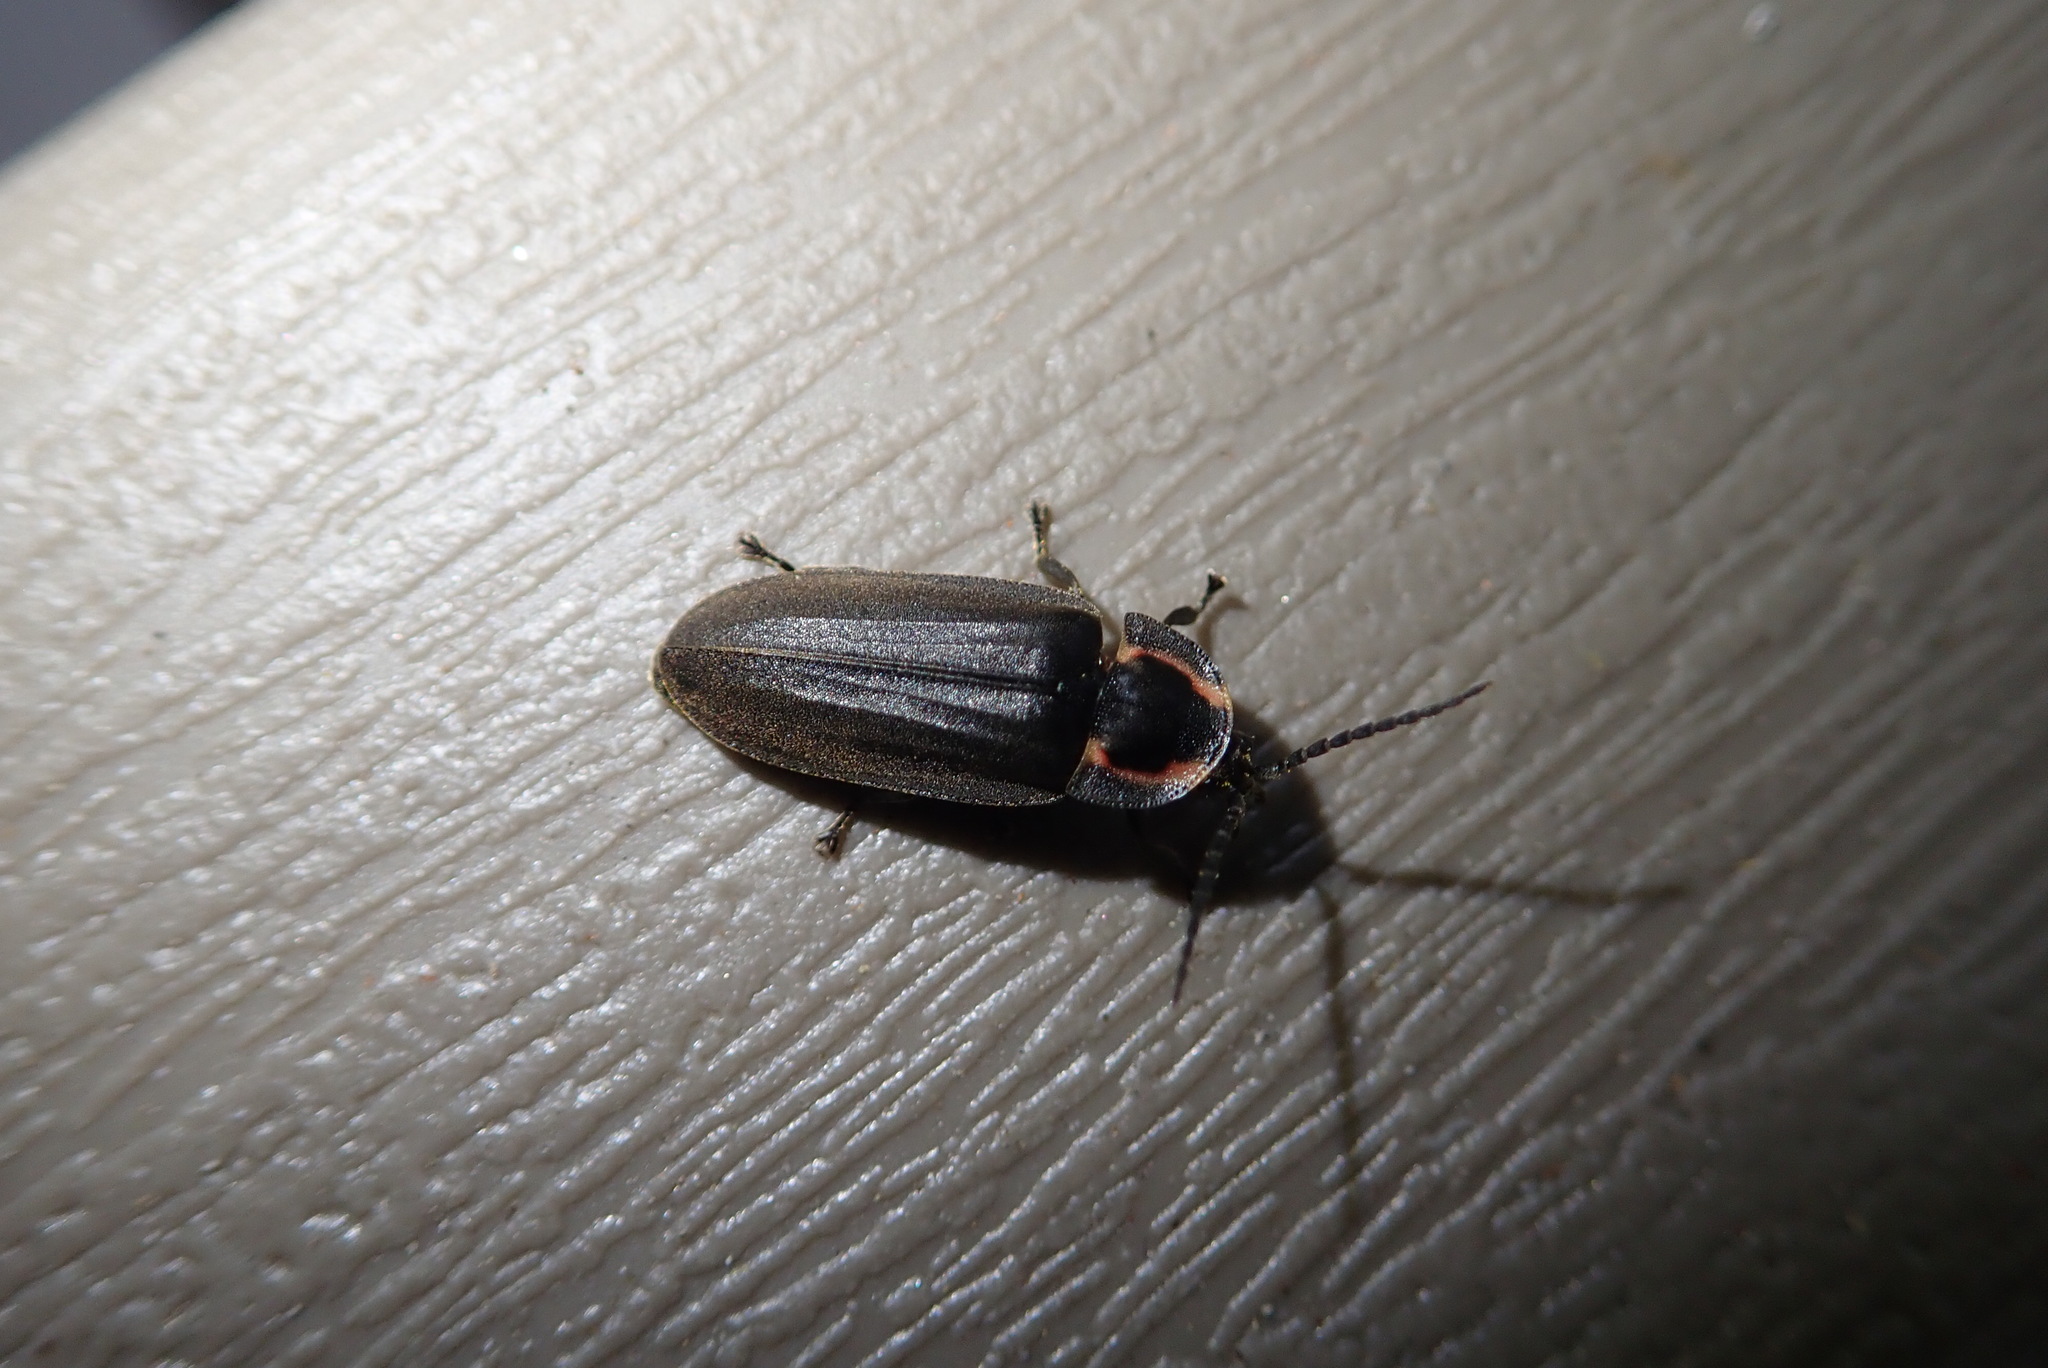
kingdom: Animalia
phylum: Arthropoda
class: Insecta
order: Coleoptera
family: Lampyridae
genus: Photinus
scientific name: Photinus corrusca
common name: Winter firefly
